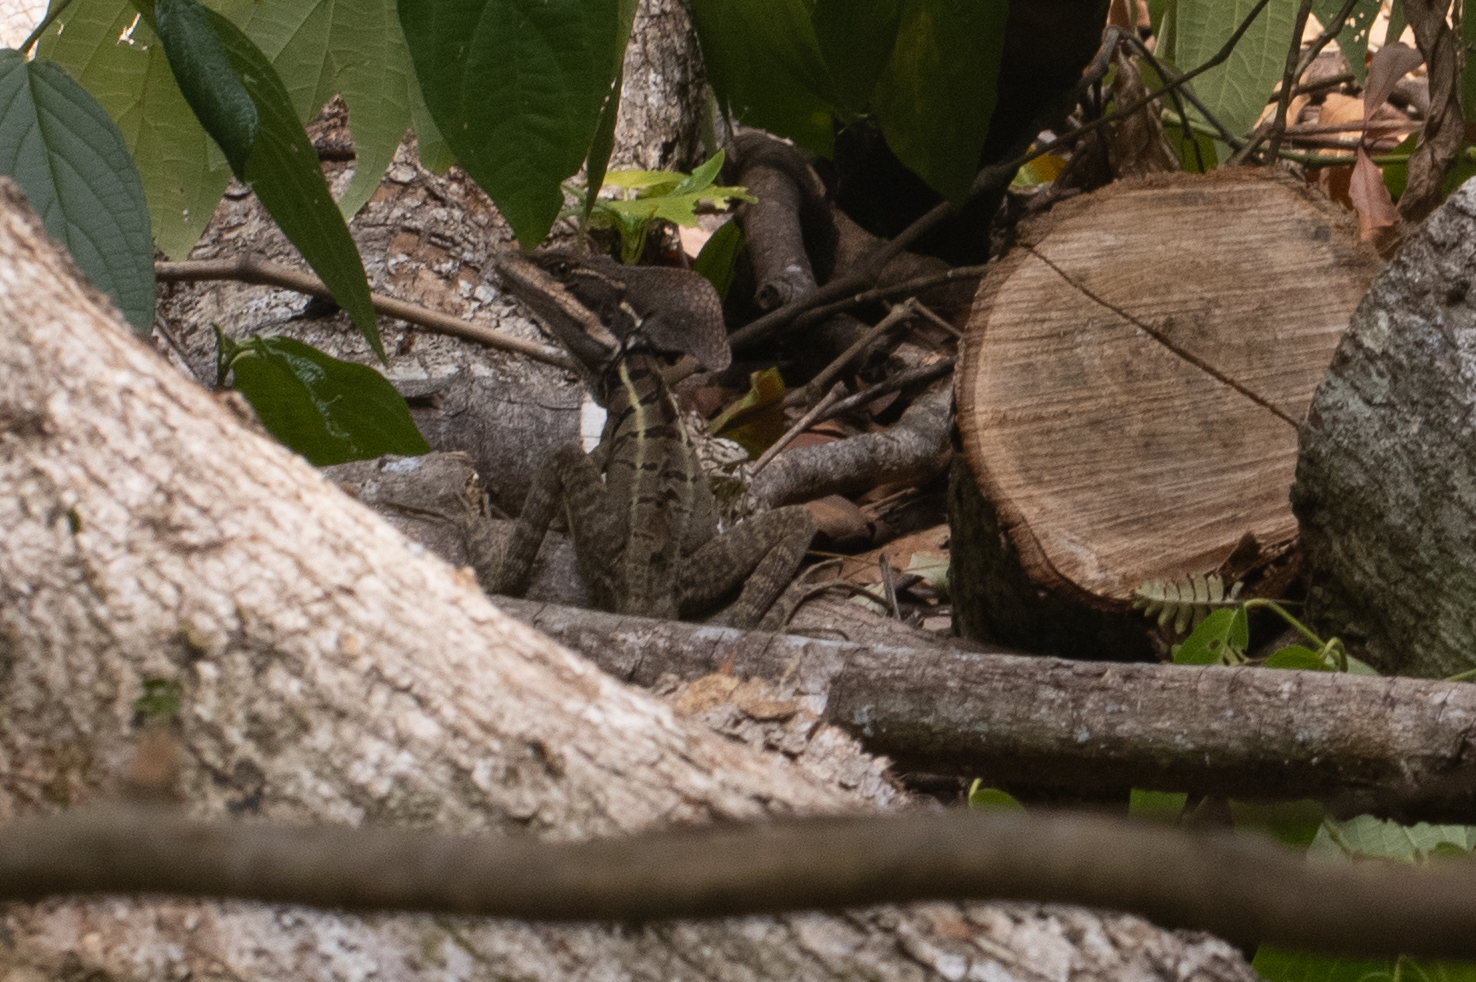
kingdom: Animalia
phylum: Chordata
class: Squamata
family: Corytophanidae
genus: Basiliscus
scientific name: Basiliscus basiliscus
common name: Common basilisk
